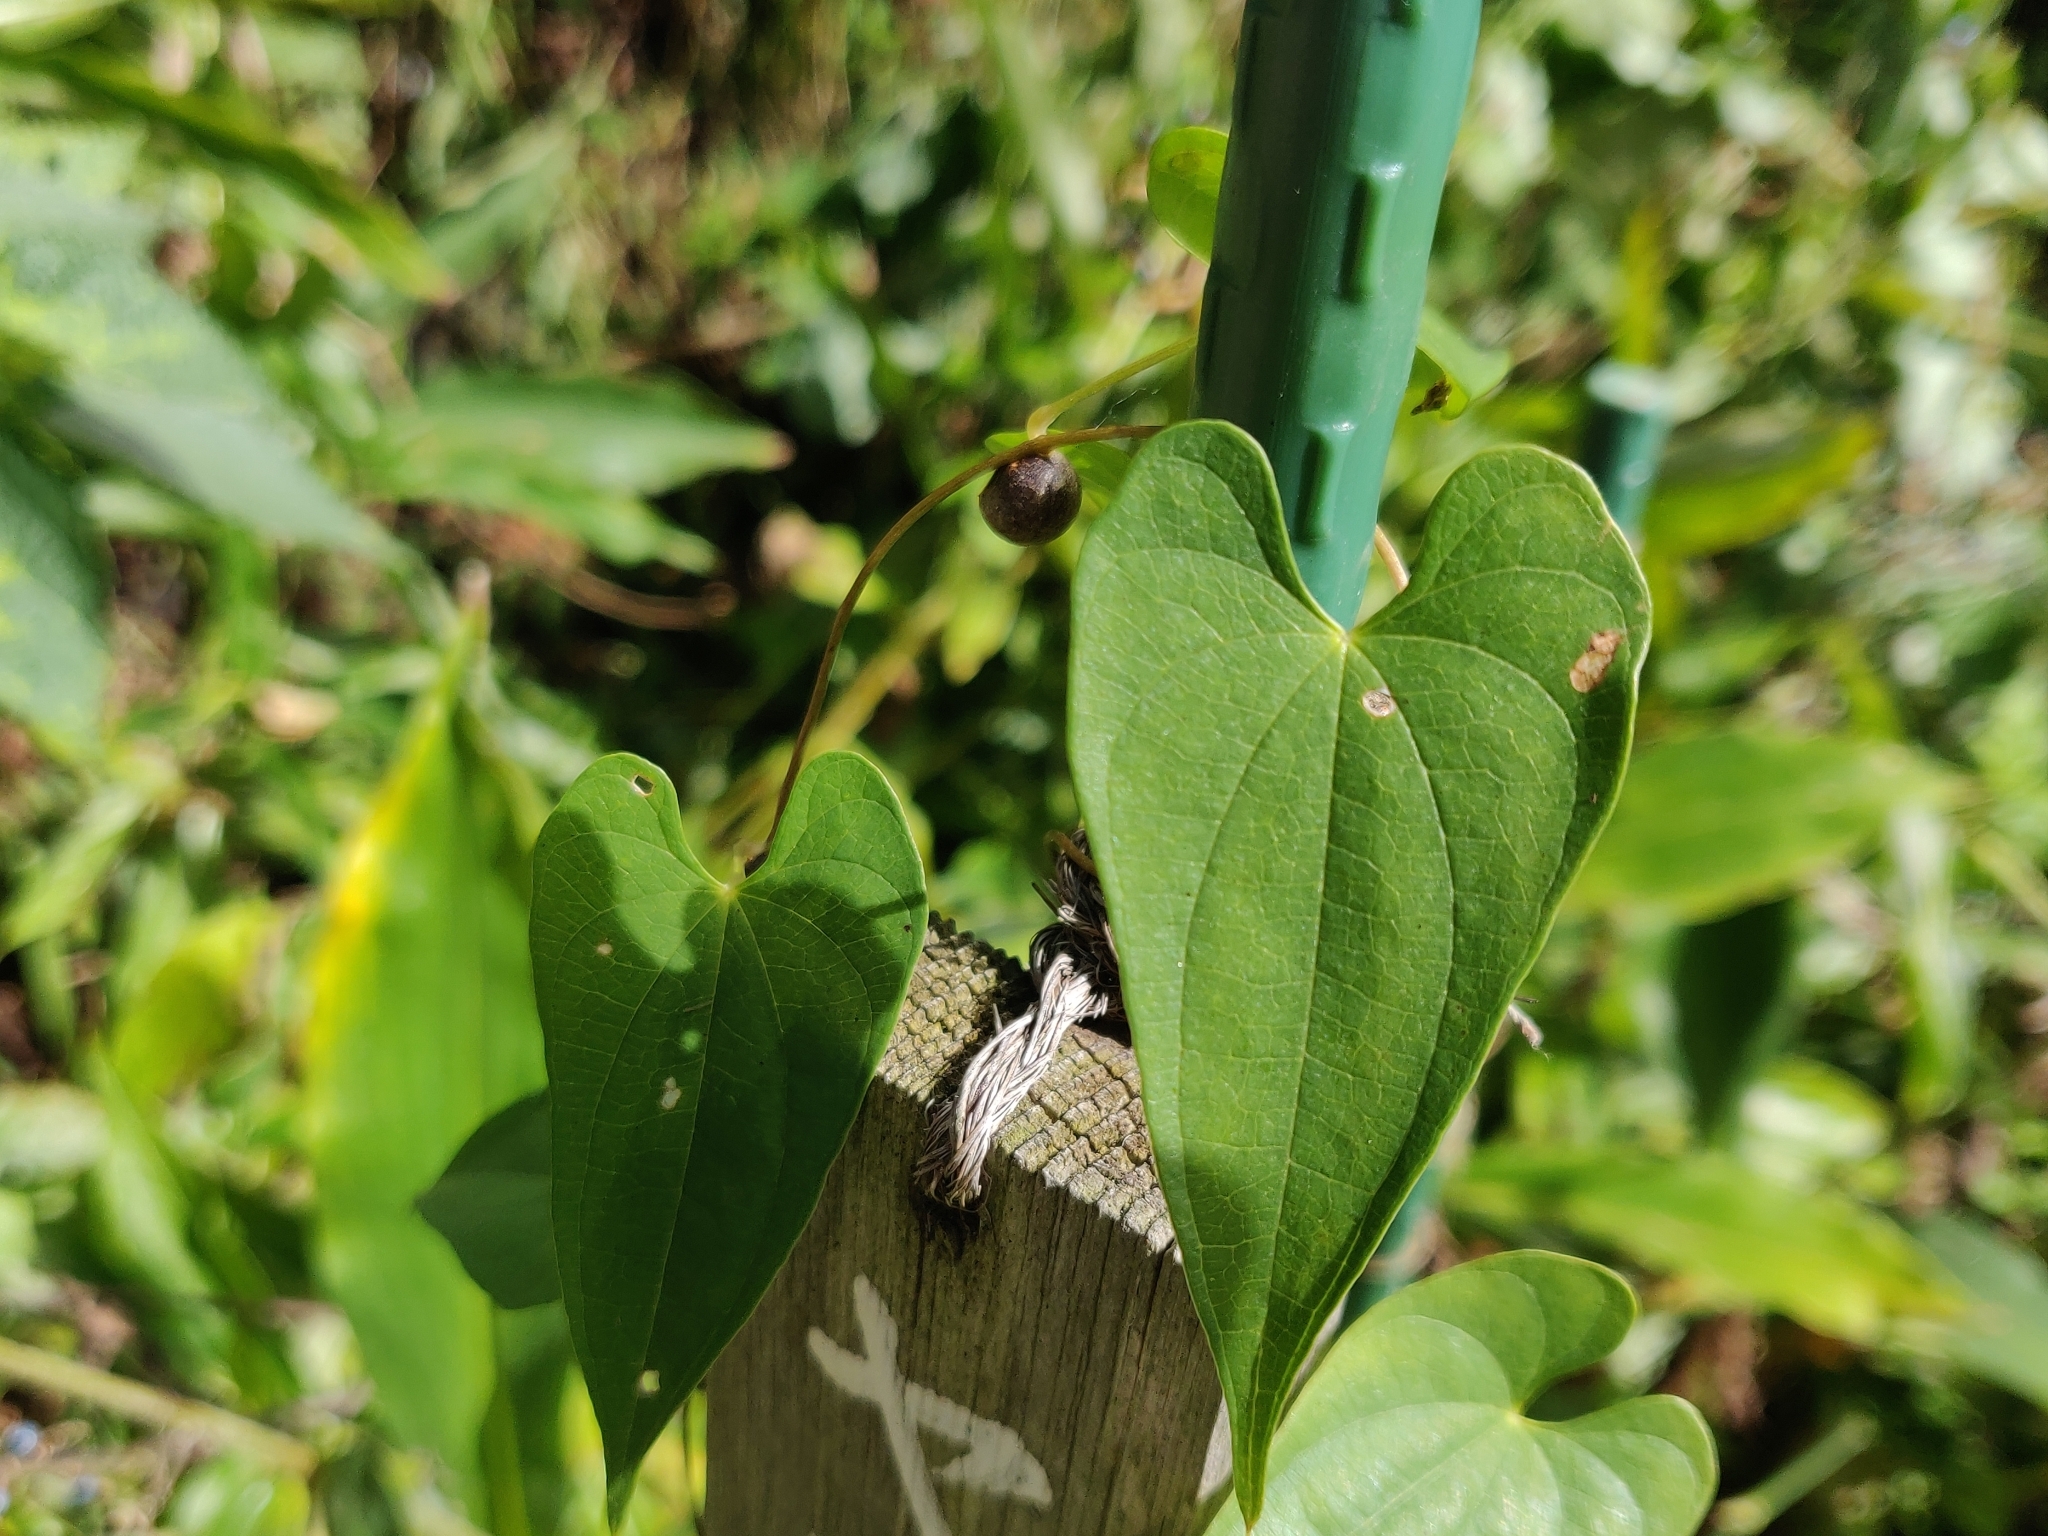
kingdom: Plantae
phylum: Tracheophyta
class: Liliopsida
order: Dioscoreales
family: Dioscoreaceae
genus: Dioscorea
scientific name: Dioscorea japonica
